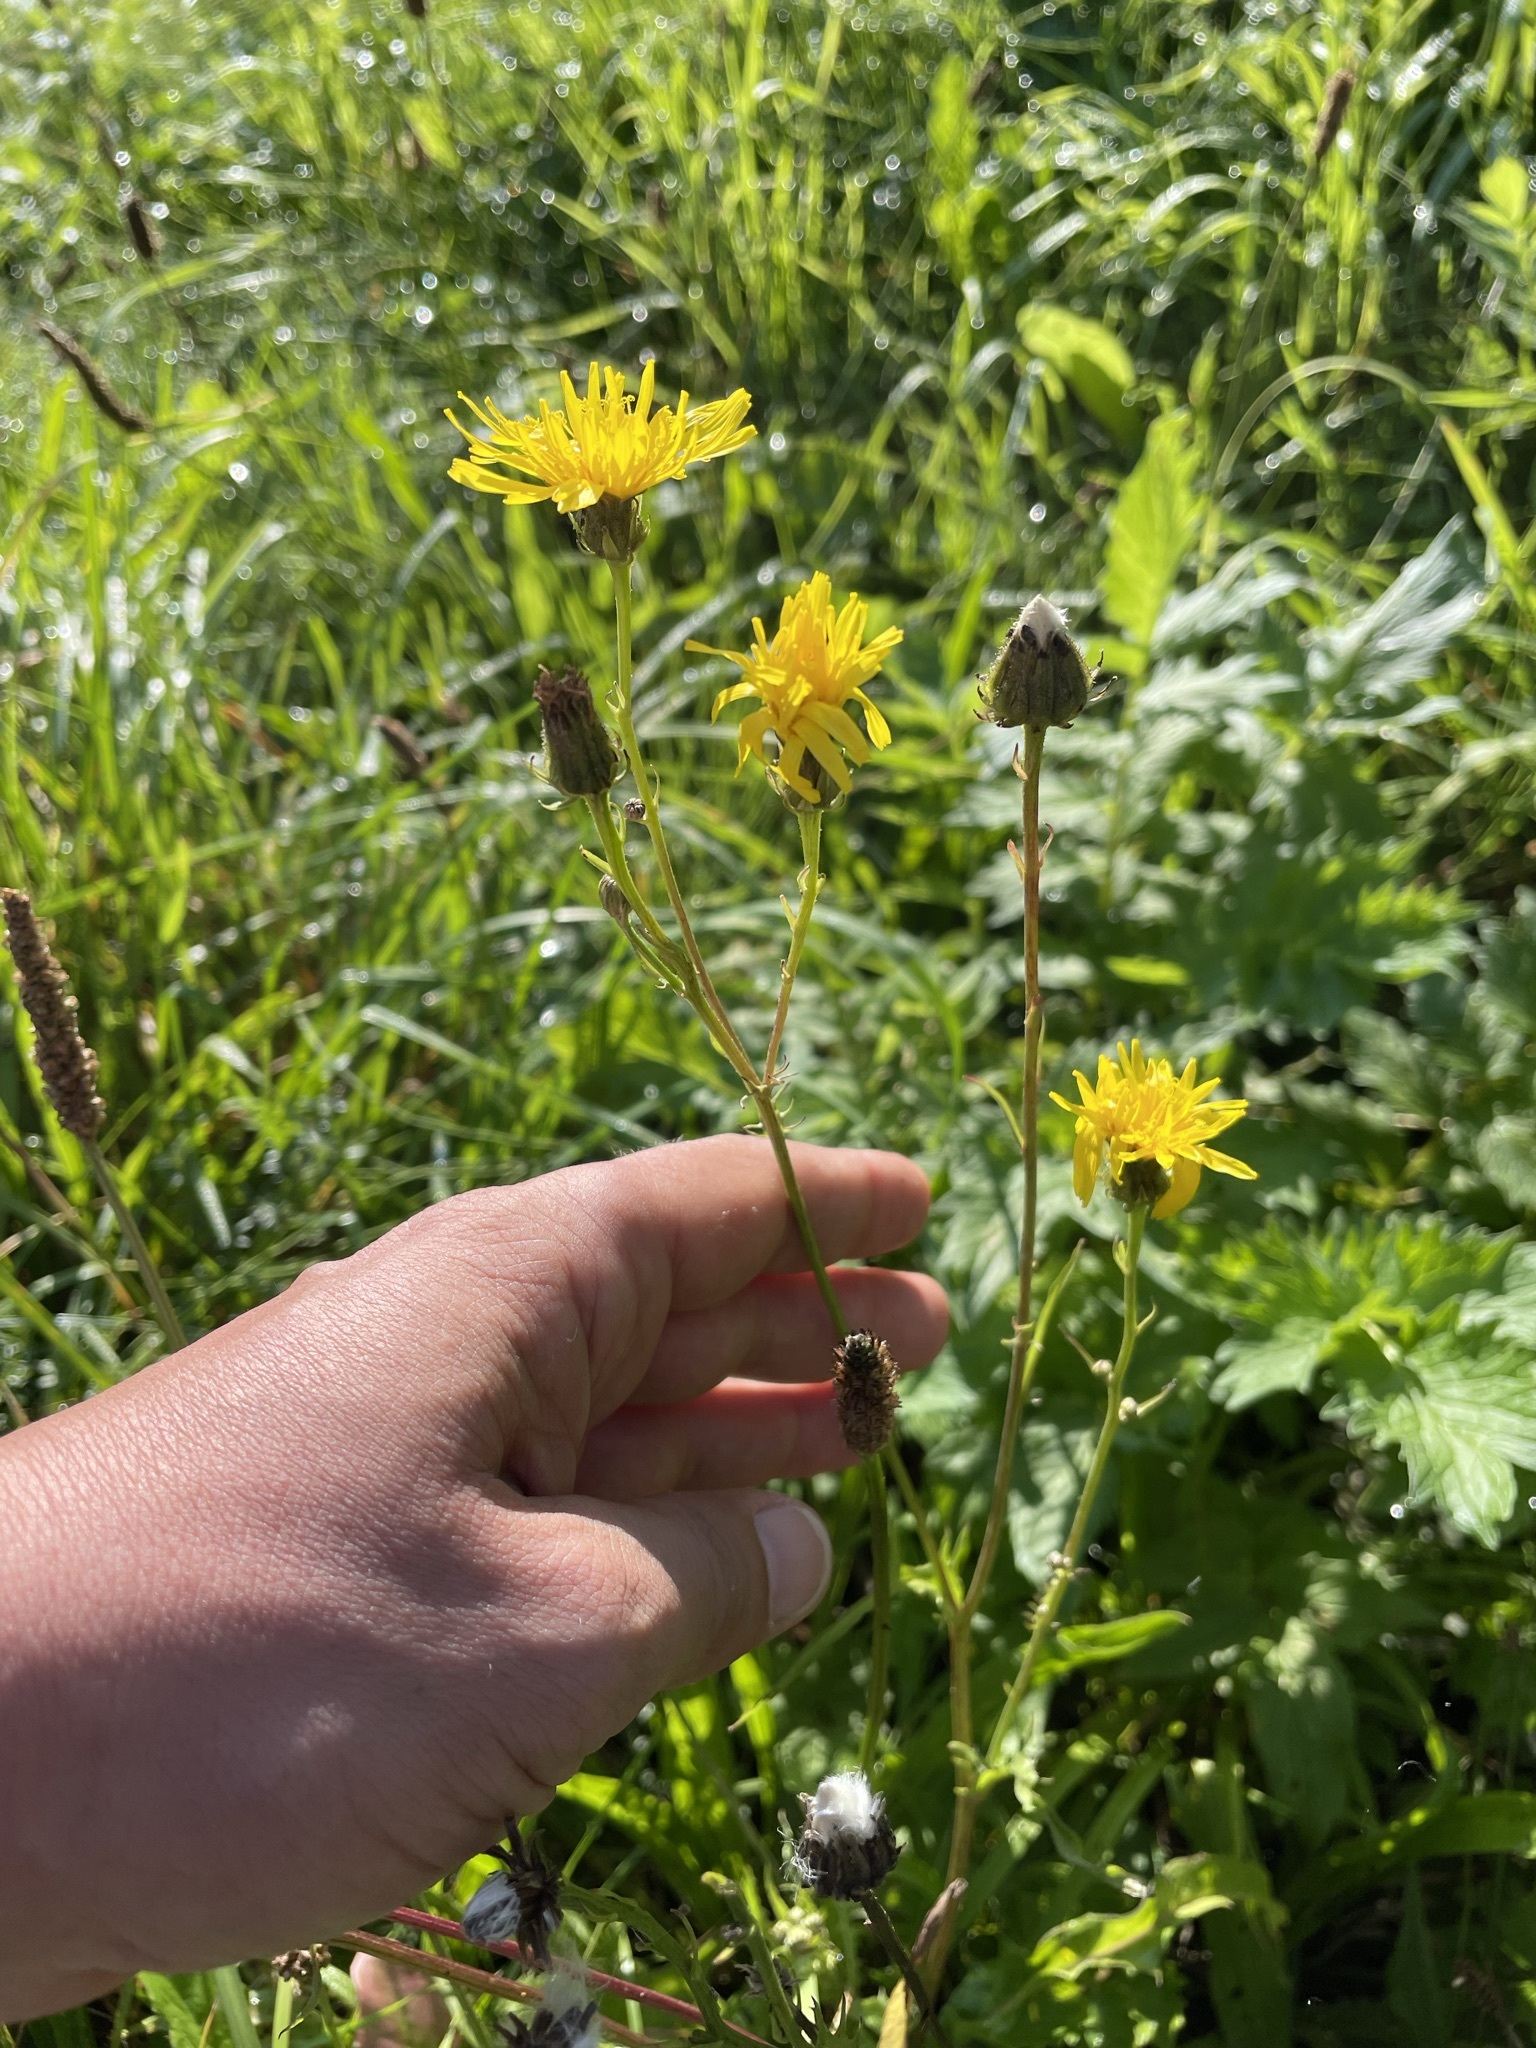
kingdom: Plantae
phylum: Tracheophyta
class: Magnoliopsida
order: Asterales
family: Asteraceae
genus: Crepis
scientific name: Crepis biennis
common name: Rough hawk's-beard
